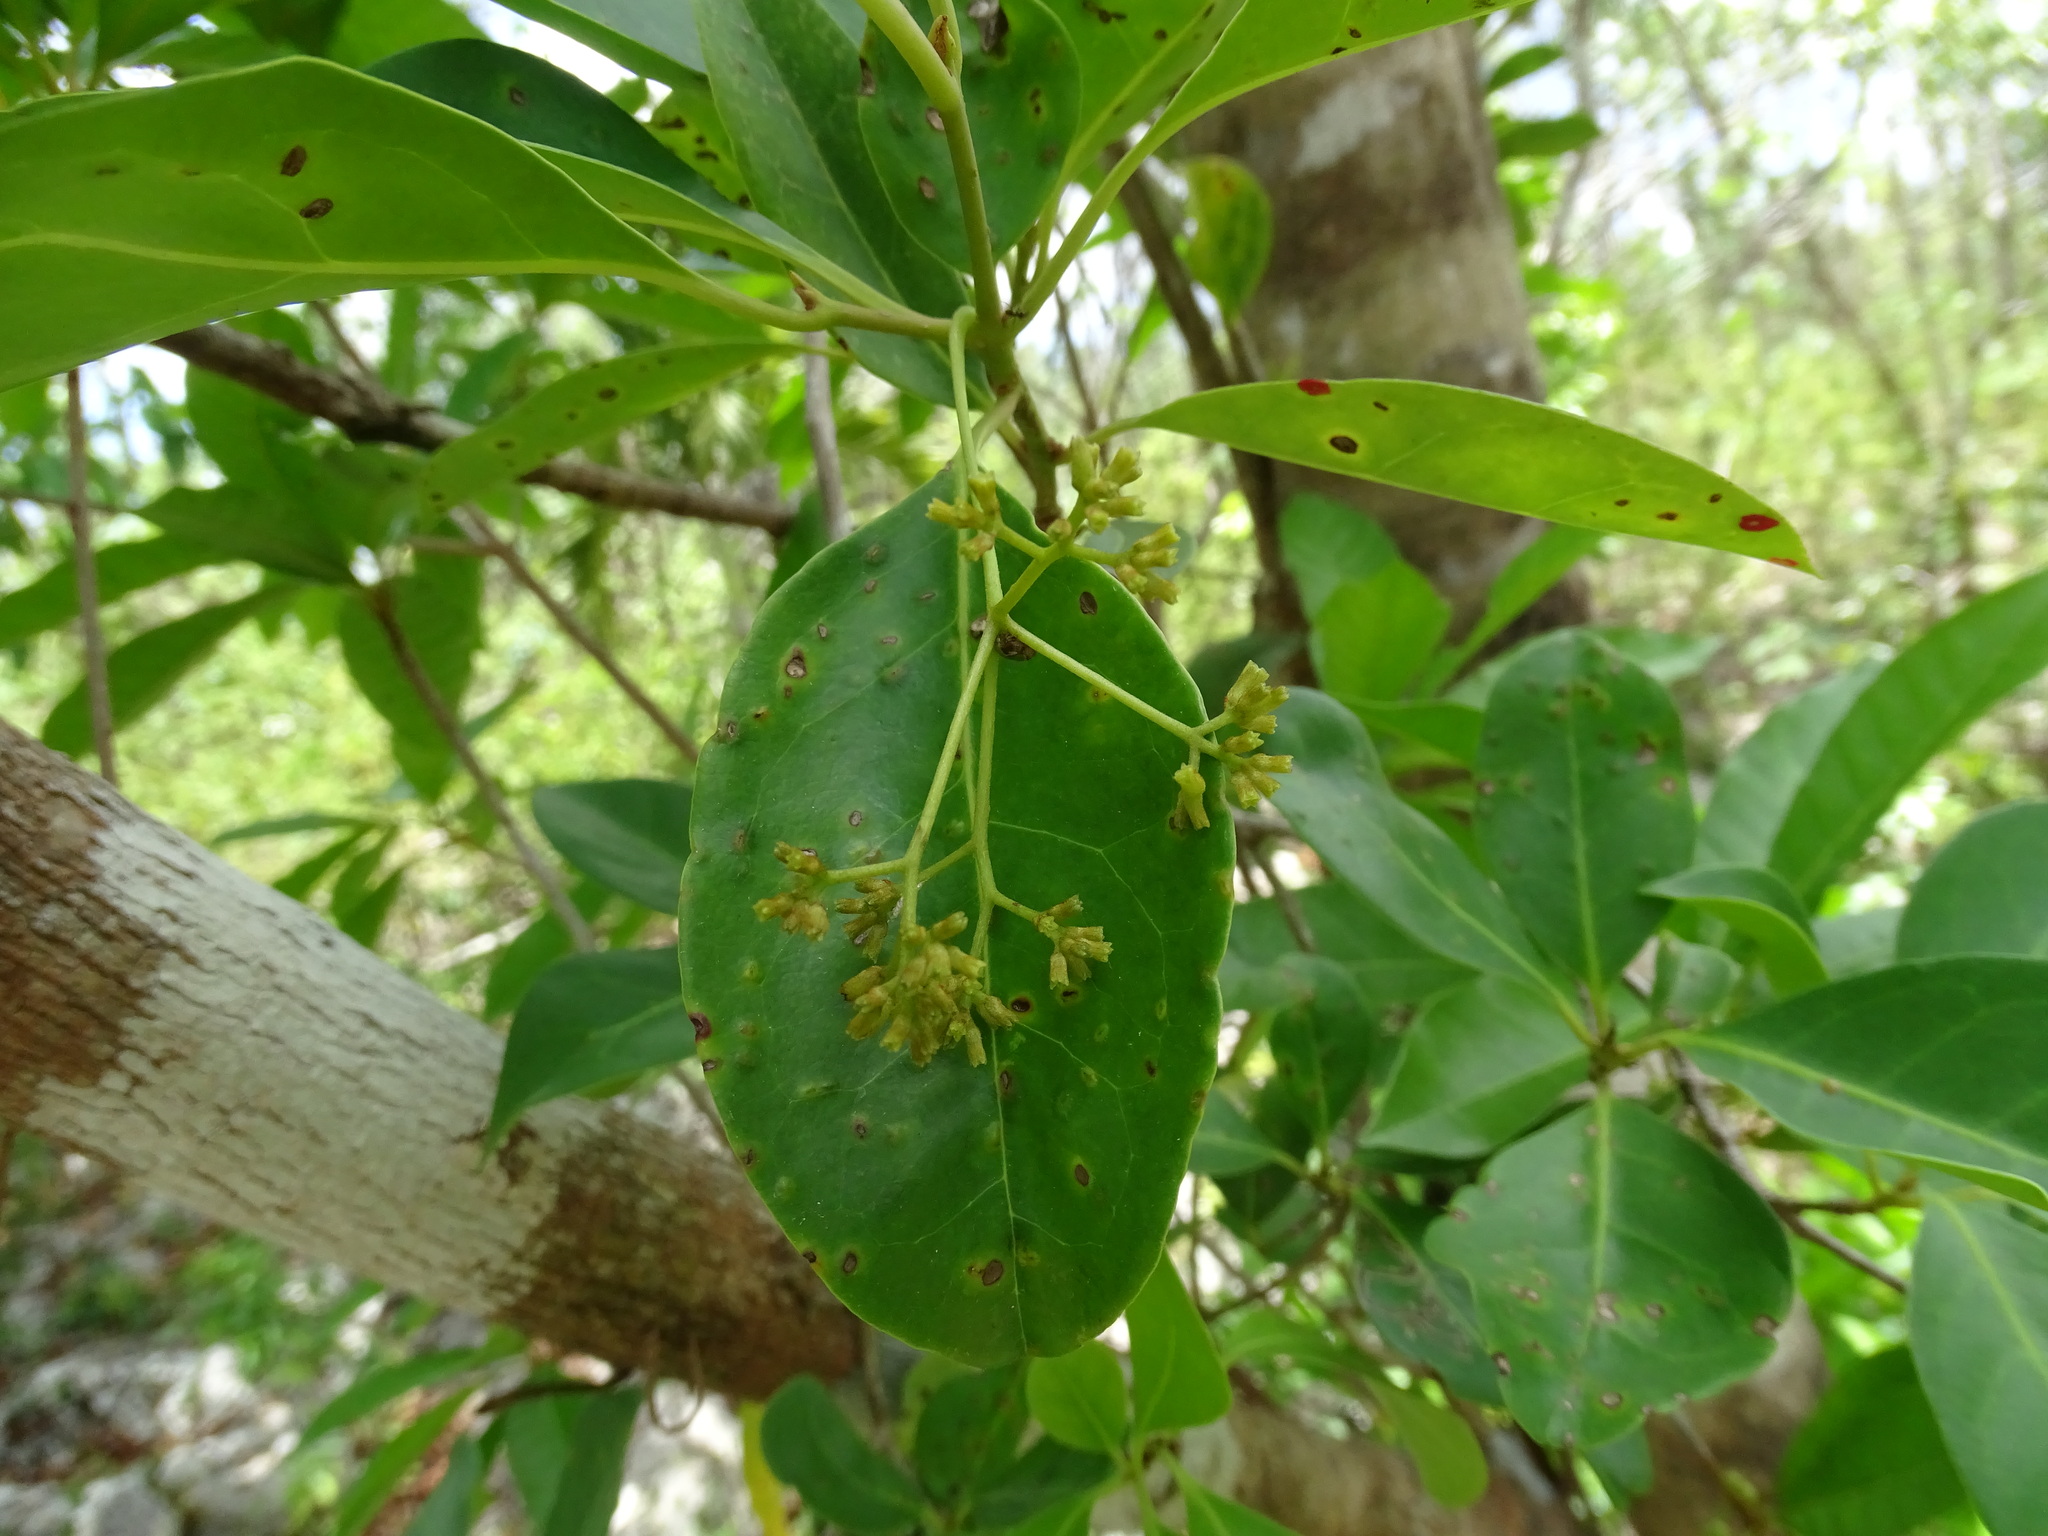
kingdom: Plantae
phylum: Tracheophyta
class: Magnoliopsida
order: Caryophyllales
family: Nyctaginaceae
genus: Guapira
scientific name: Guapira costaricana
